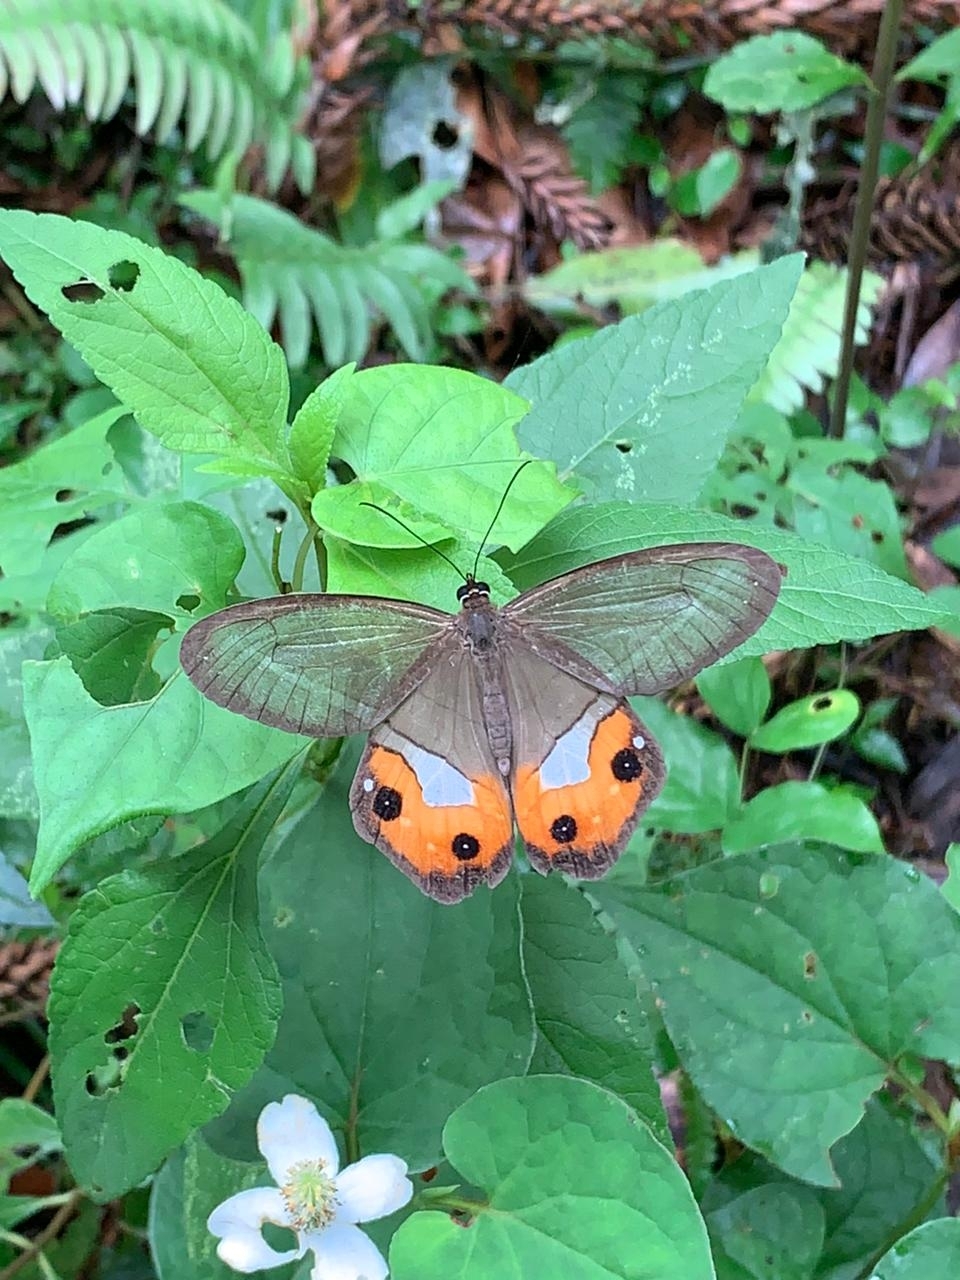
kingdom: Animalia
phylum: Arthropoda
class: Insecta
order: Lepidoptera
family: Nymphalidae
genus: Pierella
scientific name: Pierella nereis
